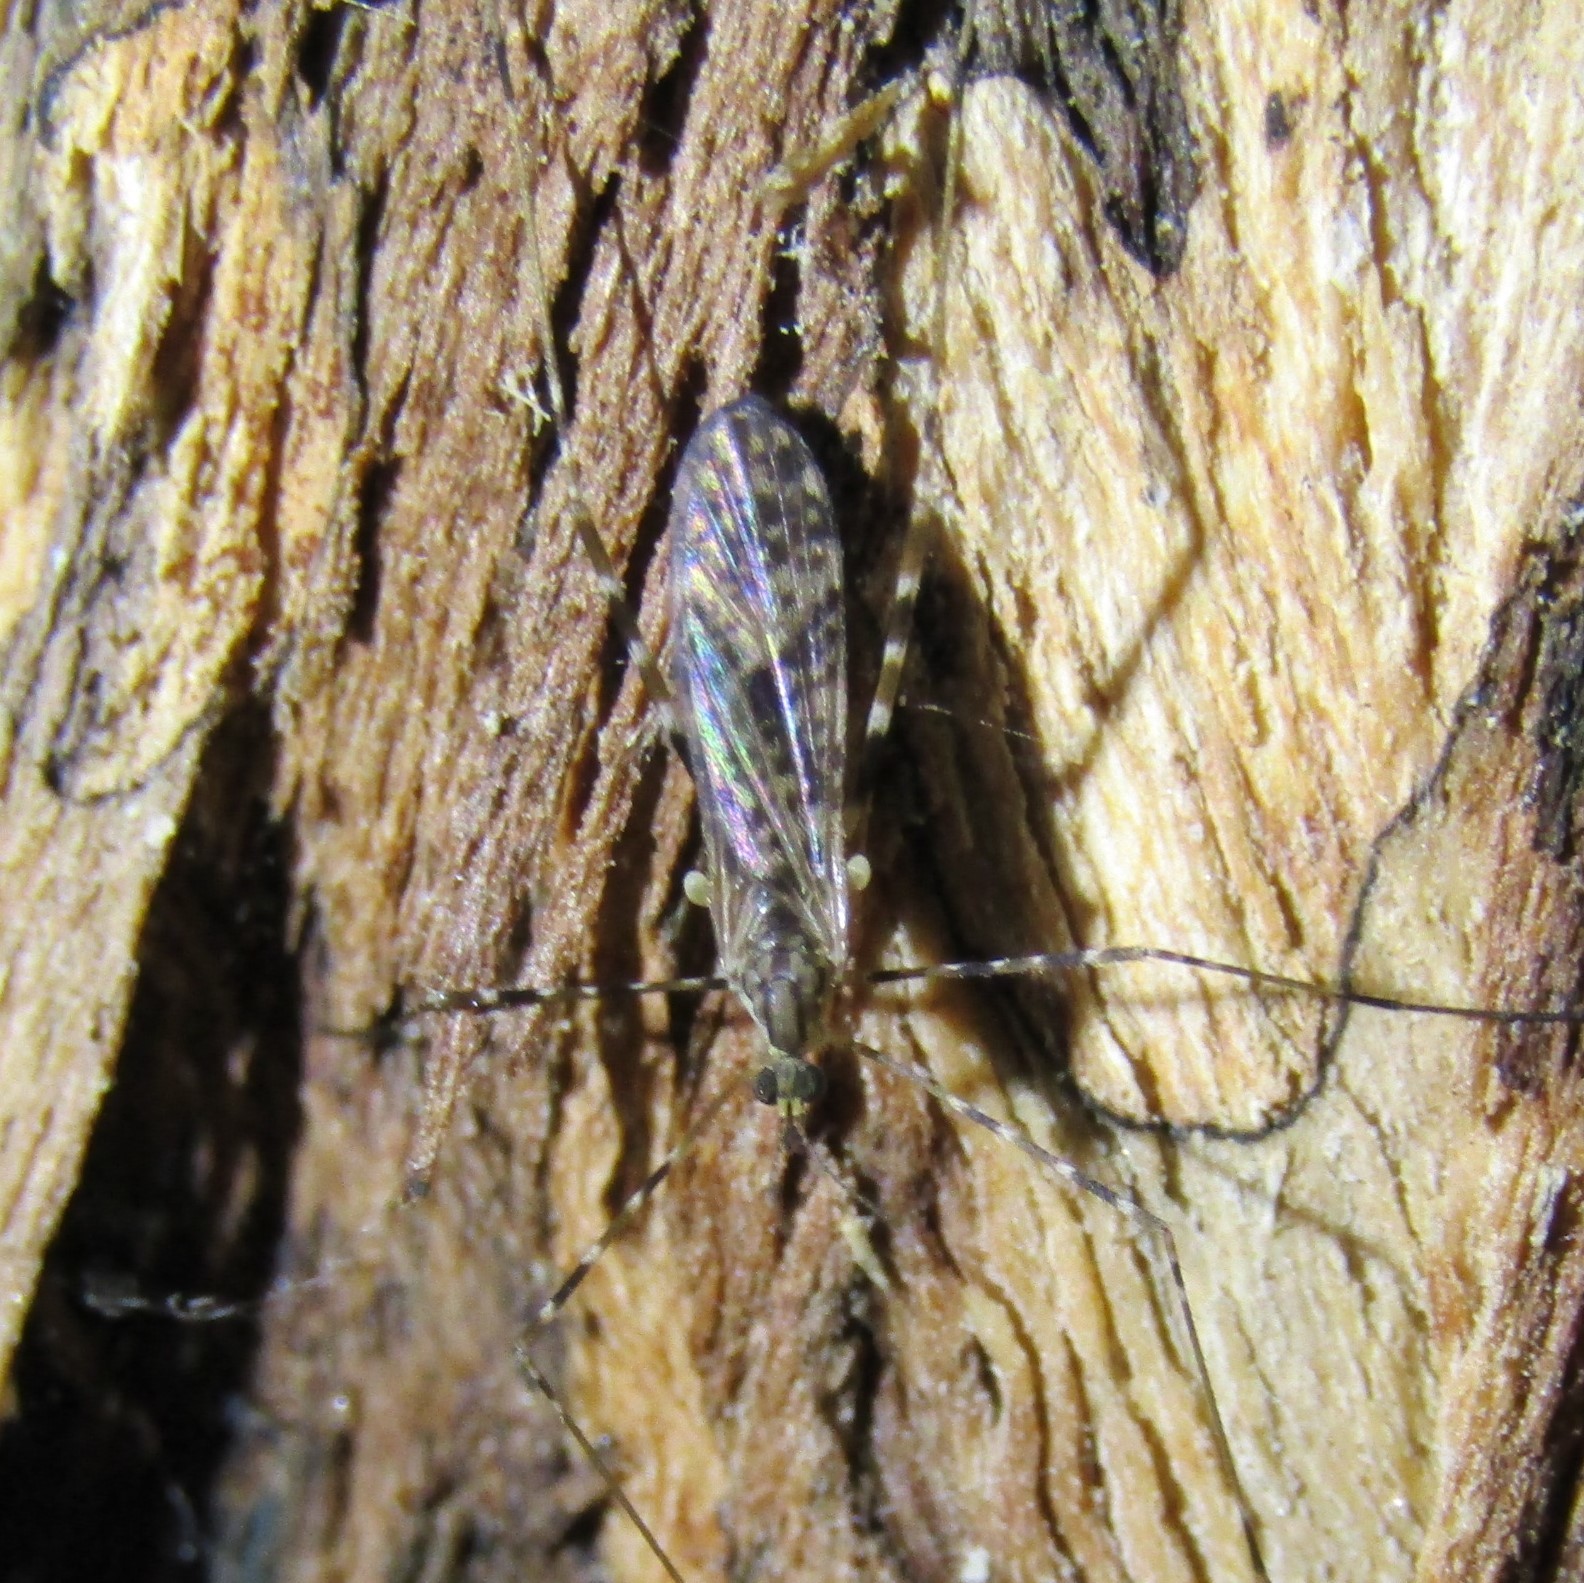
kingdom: Animalia
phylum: Arthropoda
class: Insecta
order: Diptera
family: Limoniidae
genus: Amphineurus
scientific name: Amphineurus hudsoni
